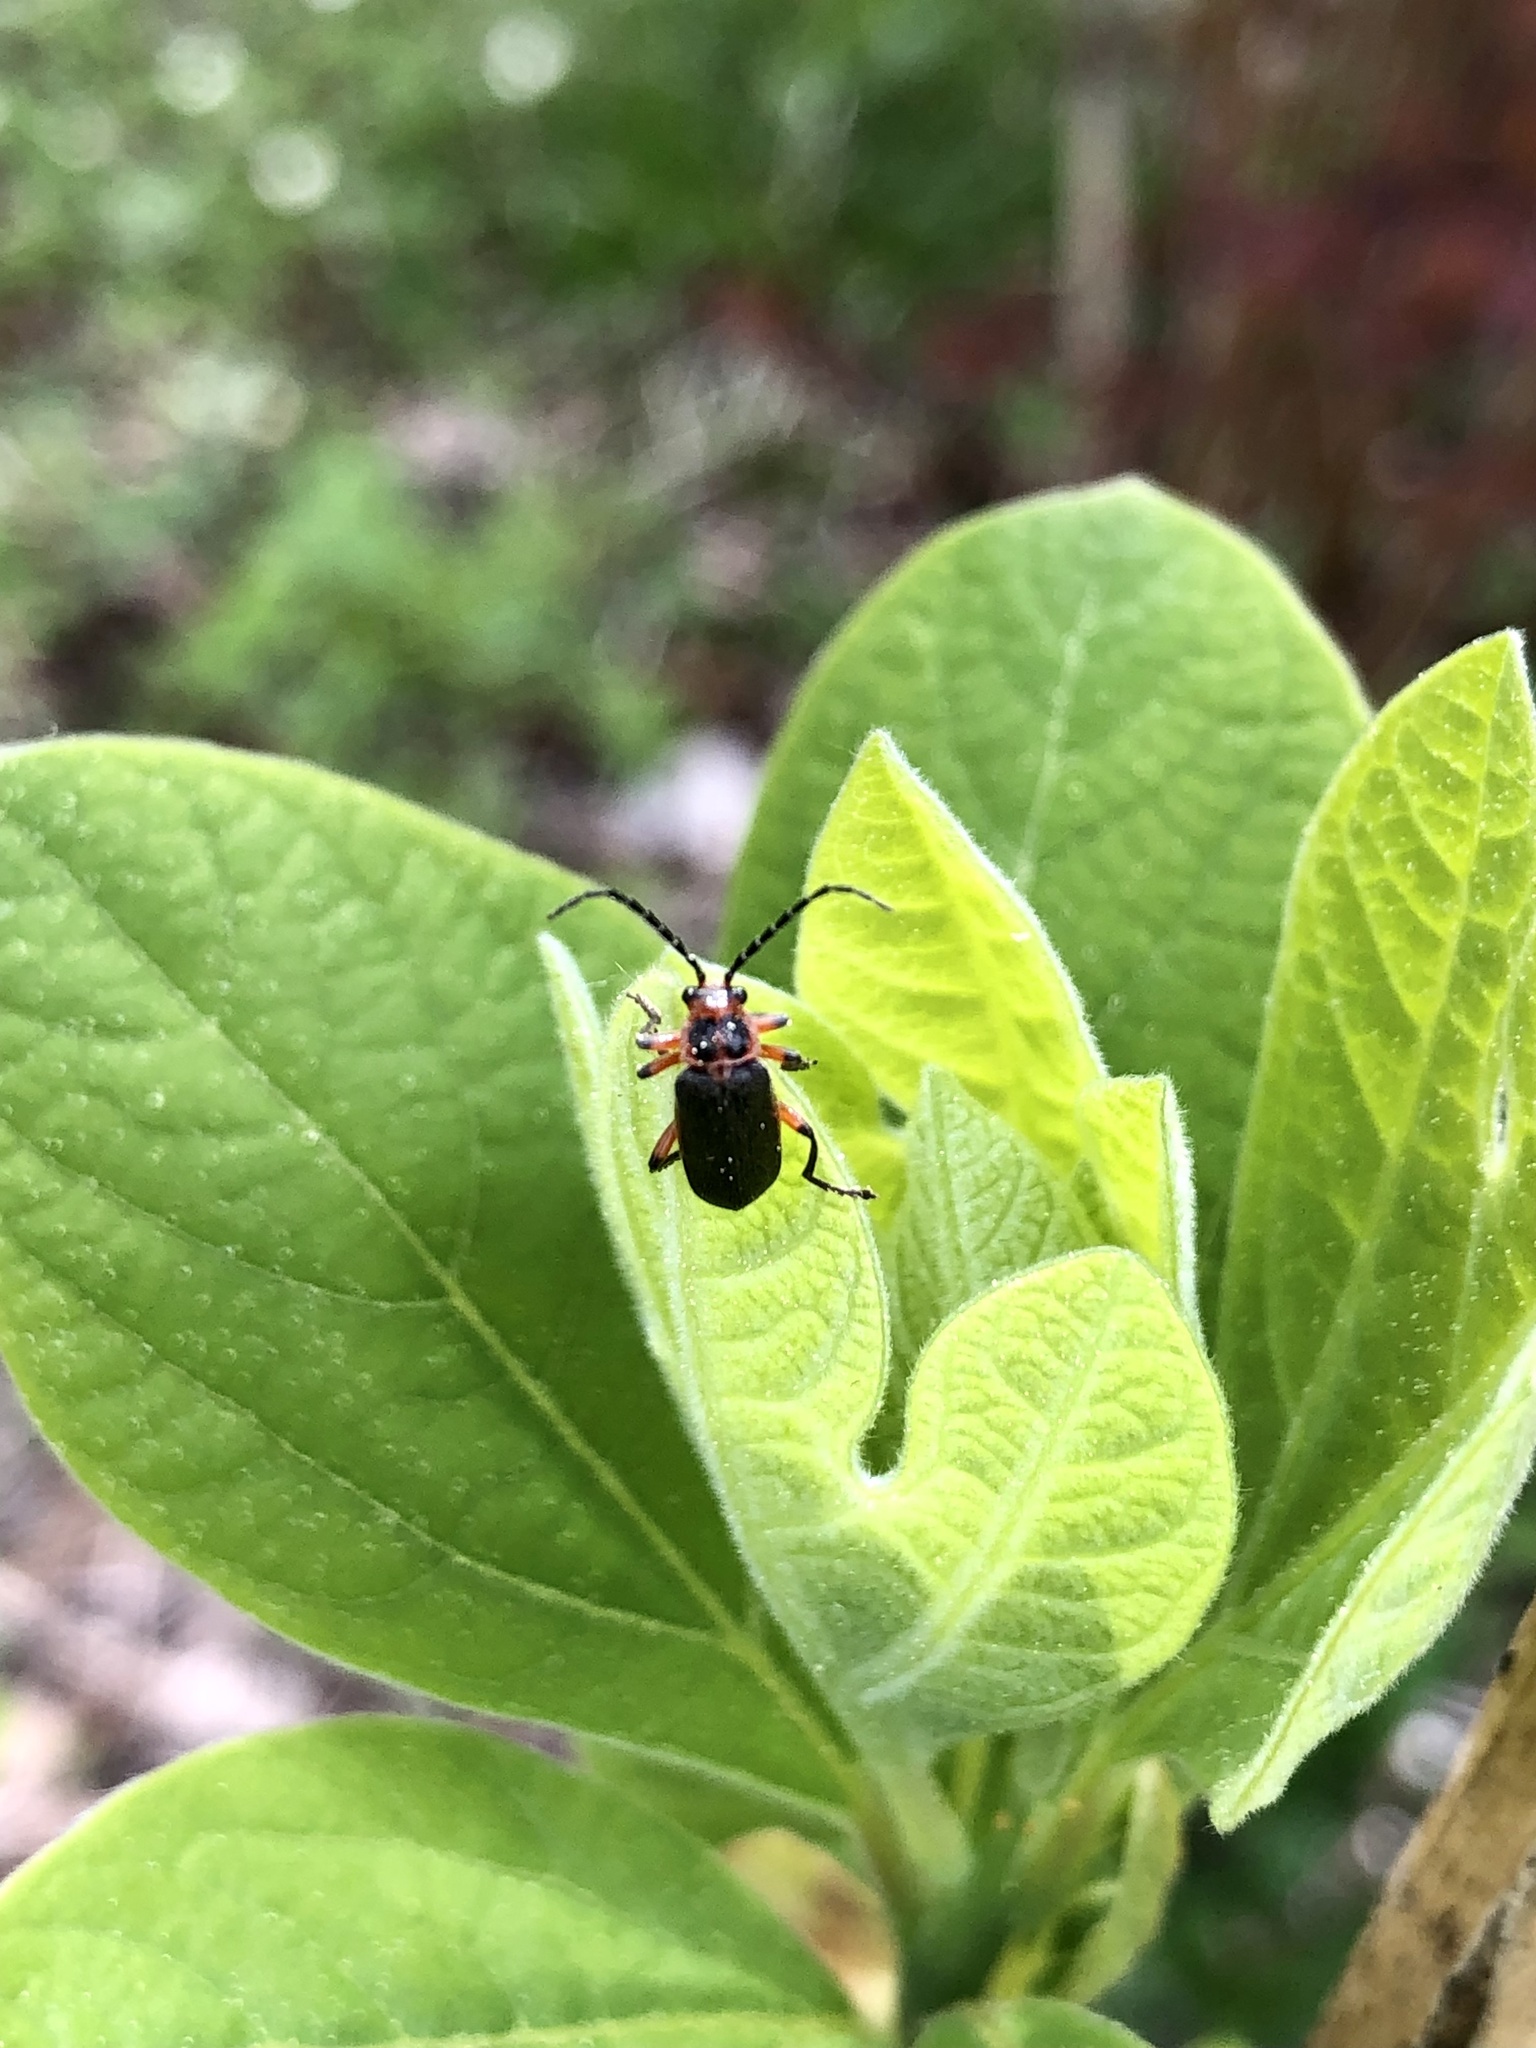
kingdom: Animalia
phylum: Arthropoda
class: Insecta
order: Coleoptera
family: Cantharidae
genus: Atalantycha
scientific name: Atalantycha bilineata
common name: Two-lined leatherwing
